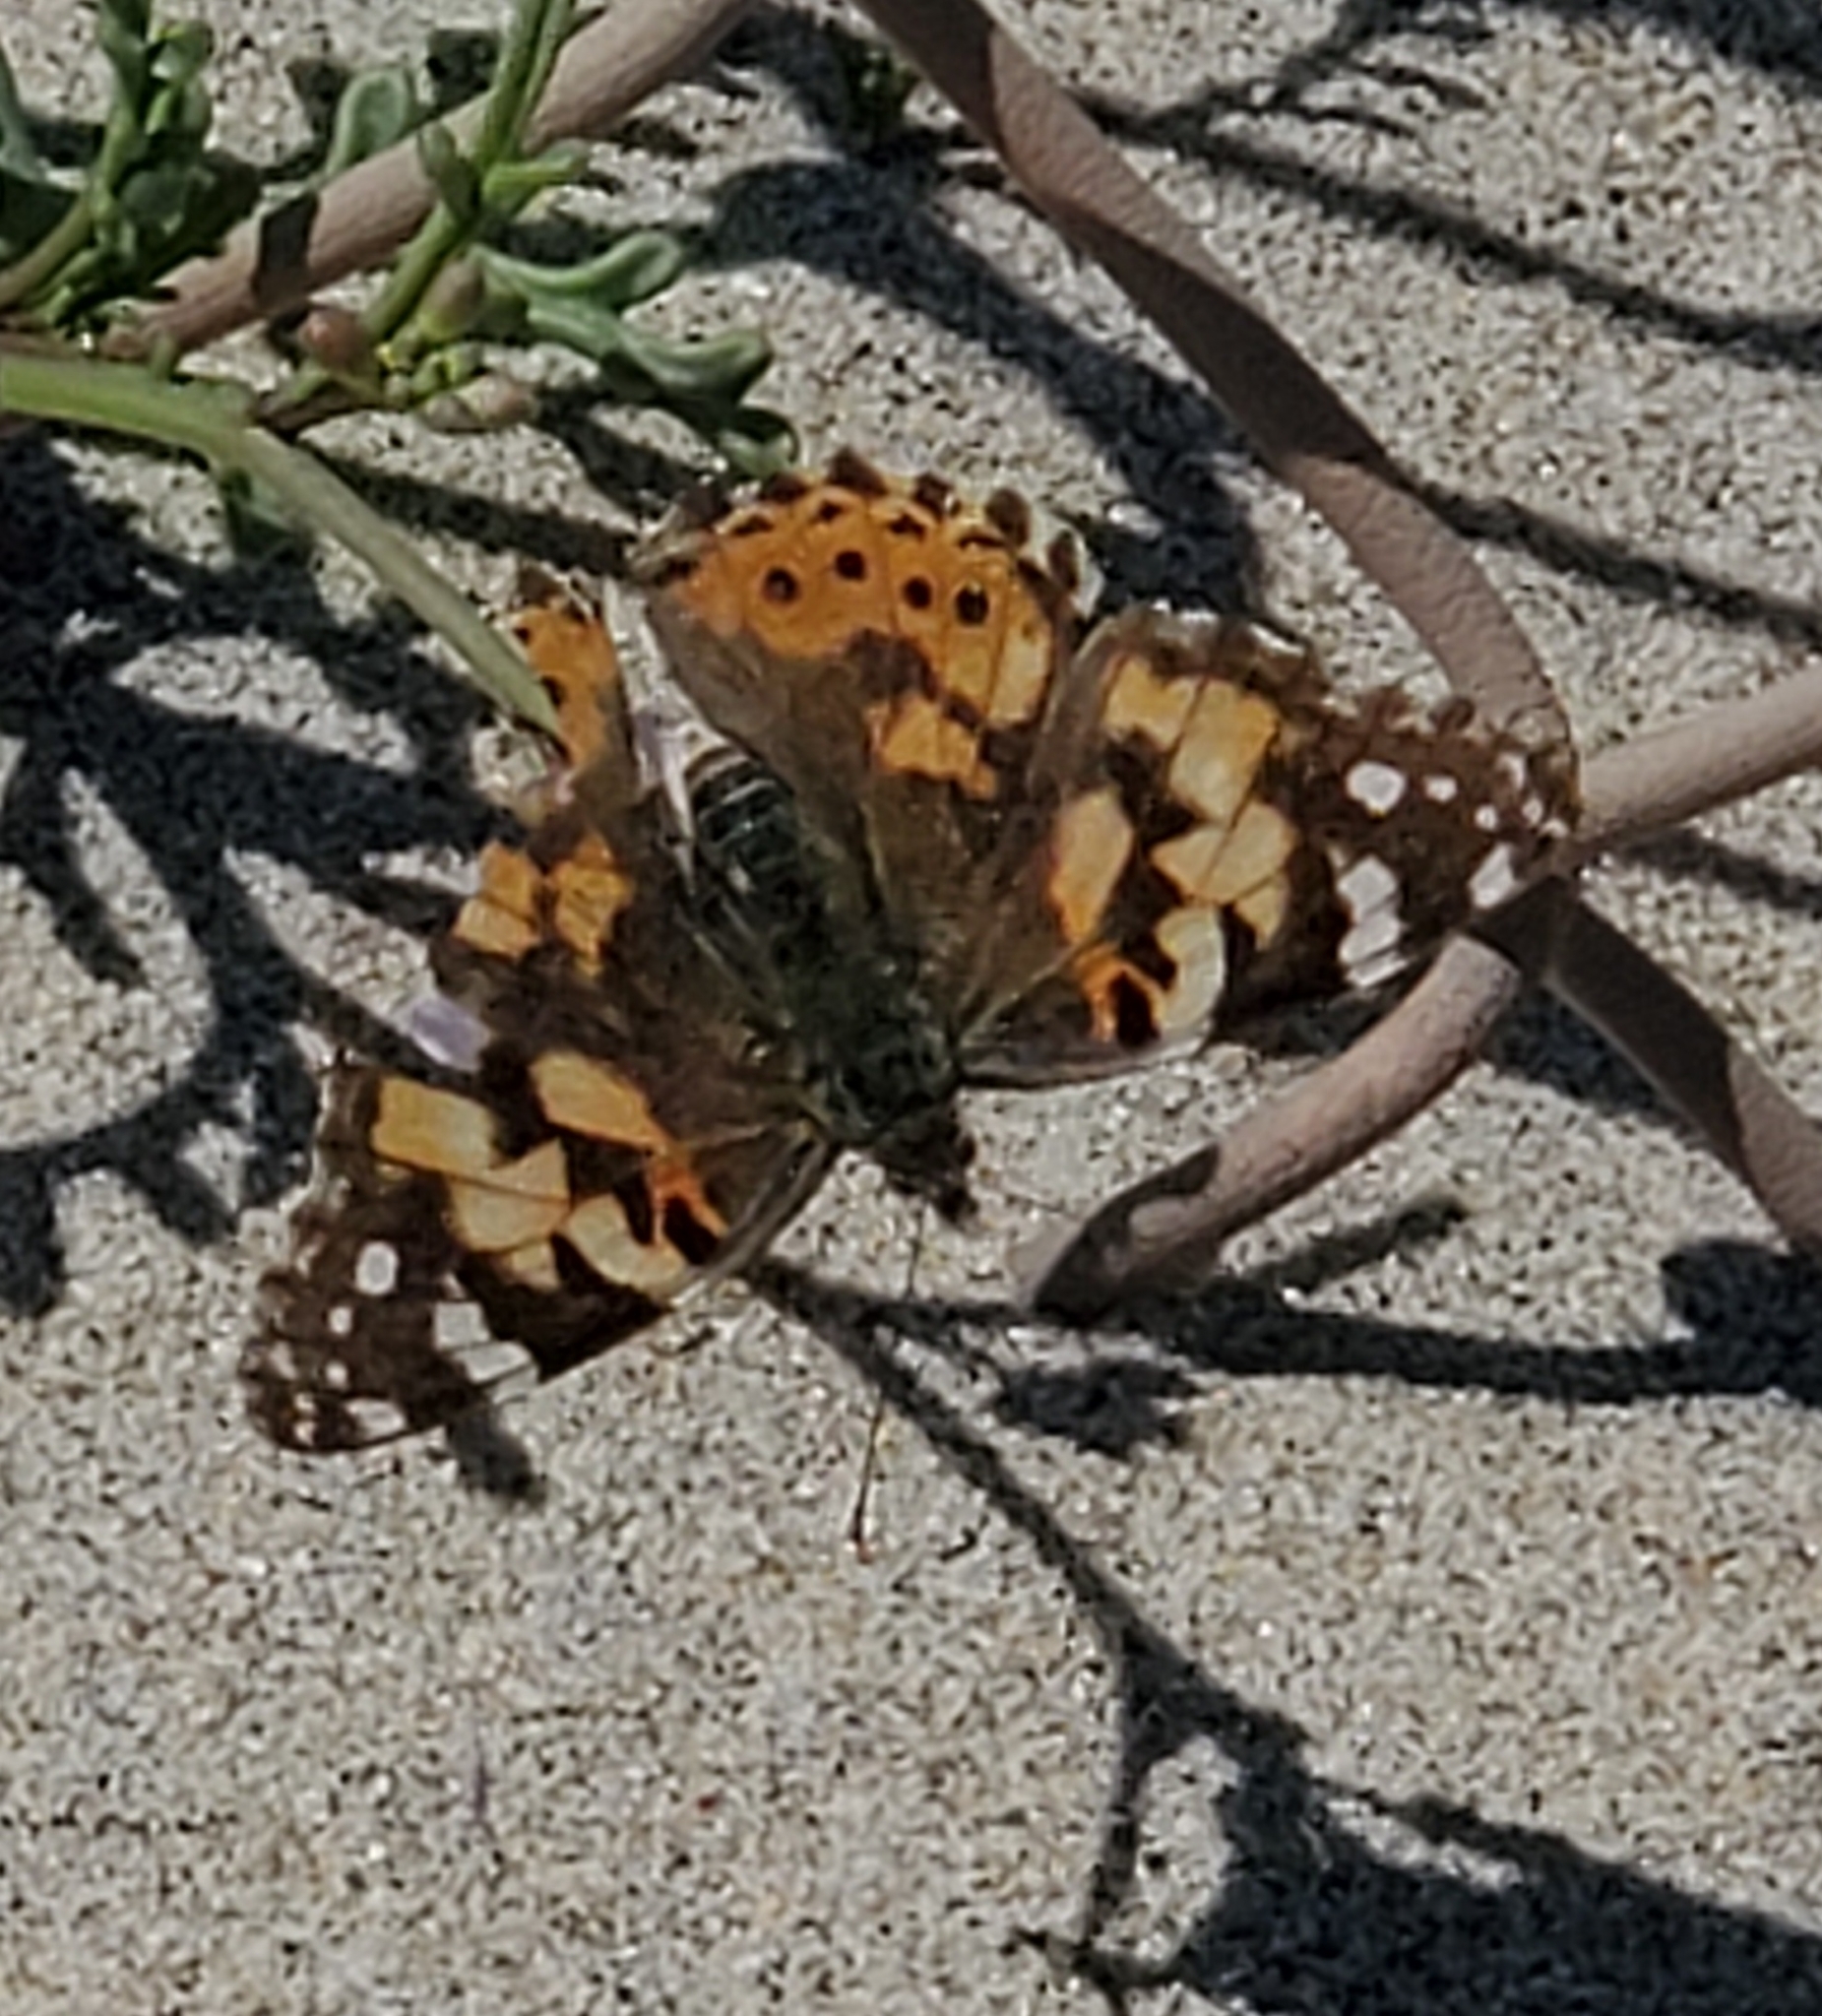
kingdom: Animalia
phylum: Arthropoda
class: Insecta
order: Lepidoptera
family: Nymphalidae
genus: Vanessa
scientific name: Vanessa cardui
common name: Painted lady
